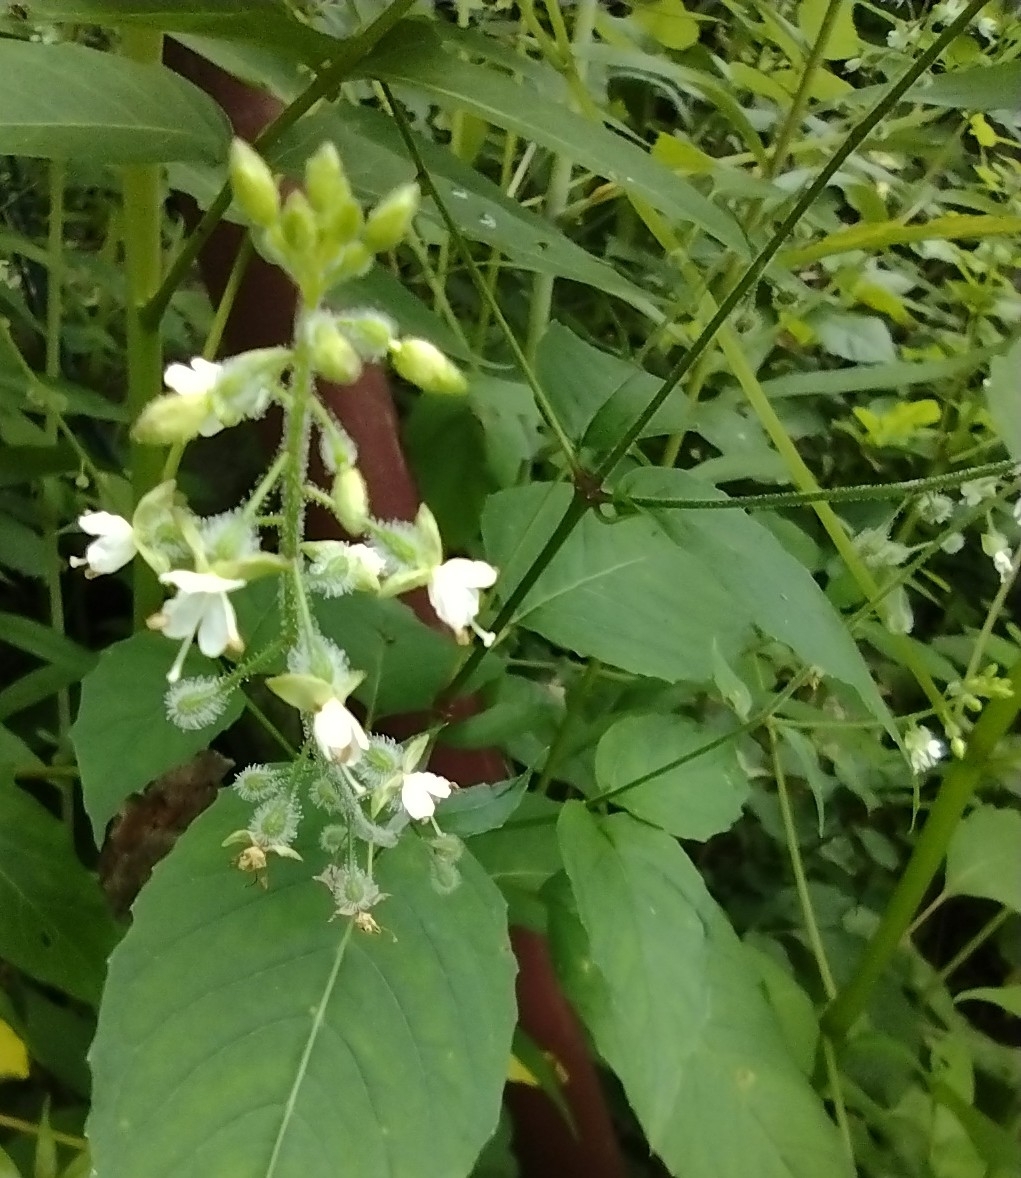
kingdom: Plantae
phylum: Tracheophyta
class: Magnoliopsida
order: Myrtales
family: Onagraceae
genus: Circaea
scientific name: Circaea canadensis
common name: Broad-leaved enchanter's nightshade
